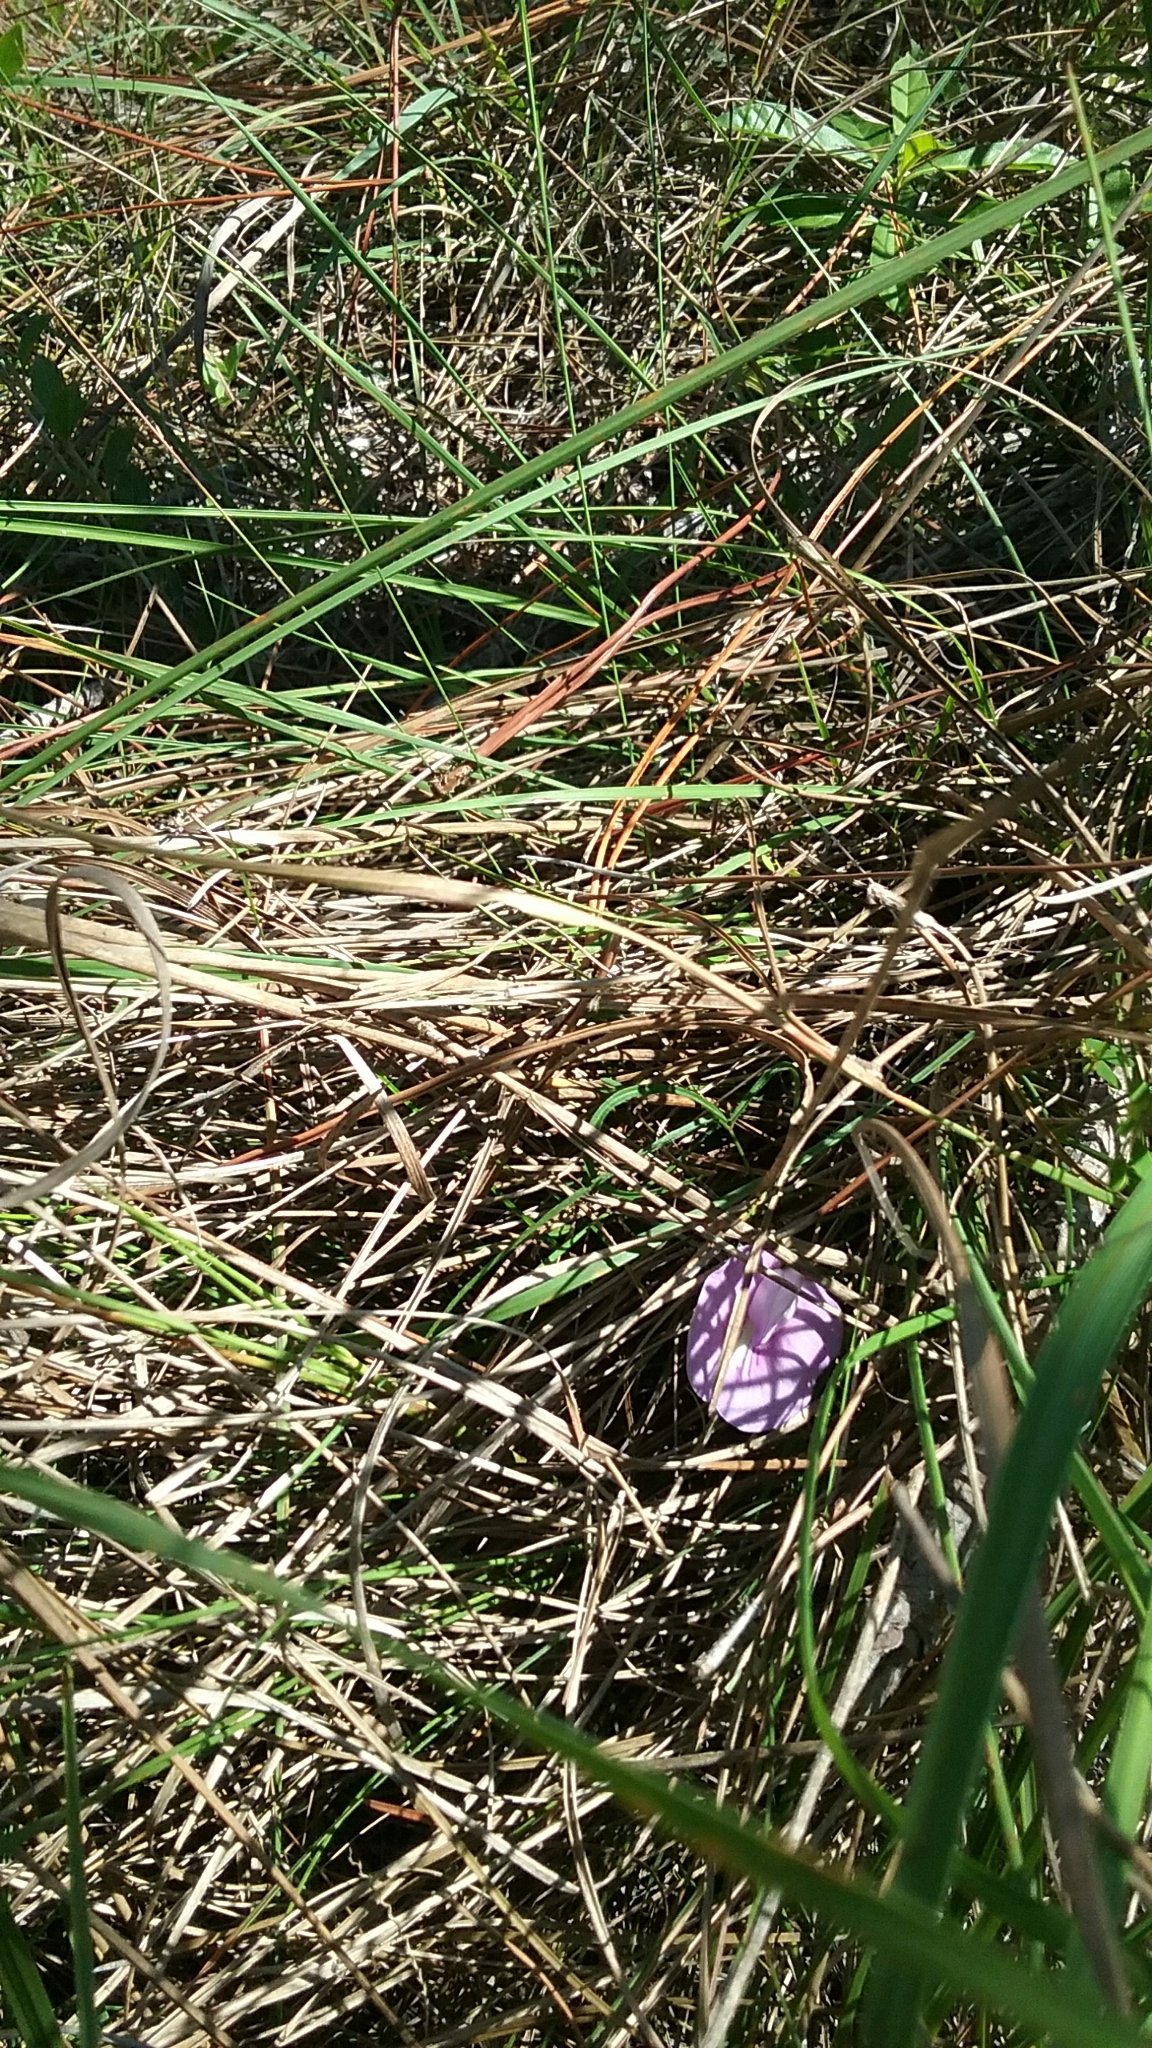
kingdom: Plantae
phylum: Tracheophyta
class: Magnoliopsida
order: Fabales
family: Fabaceae
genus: Centrosema
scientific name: Centrosema virginianum
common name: Butterfly-pea
